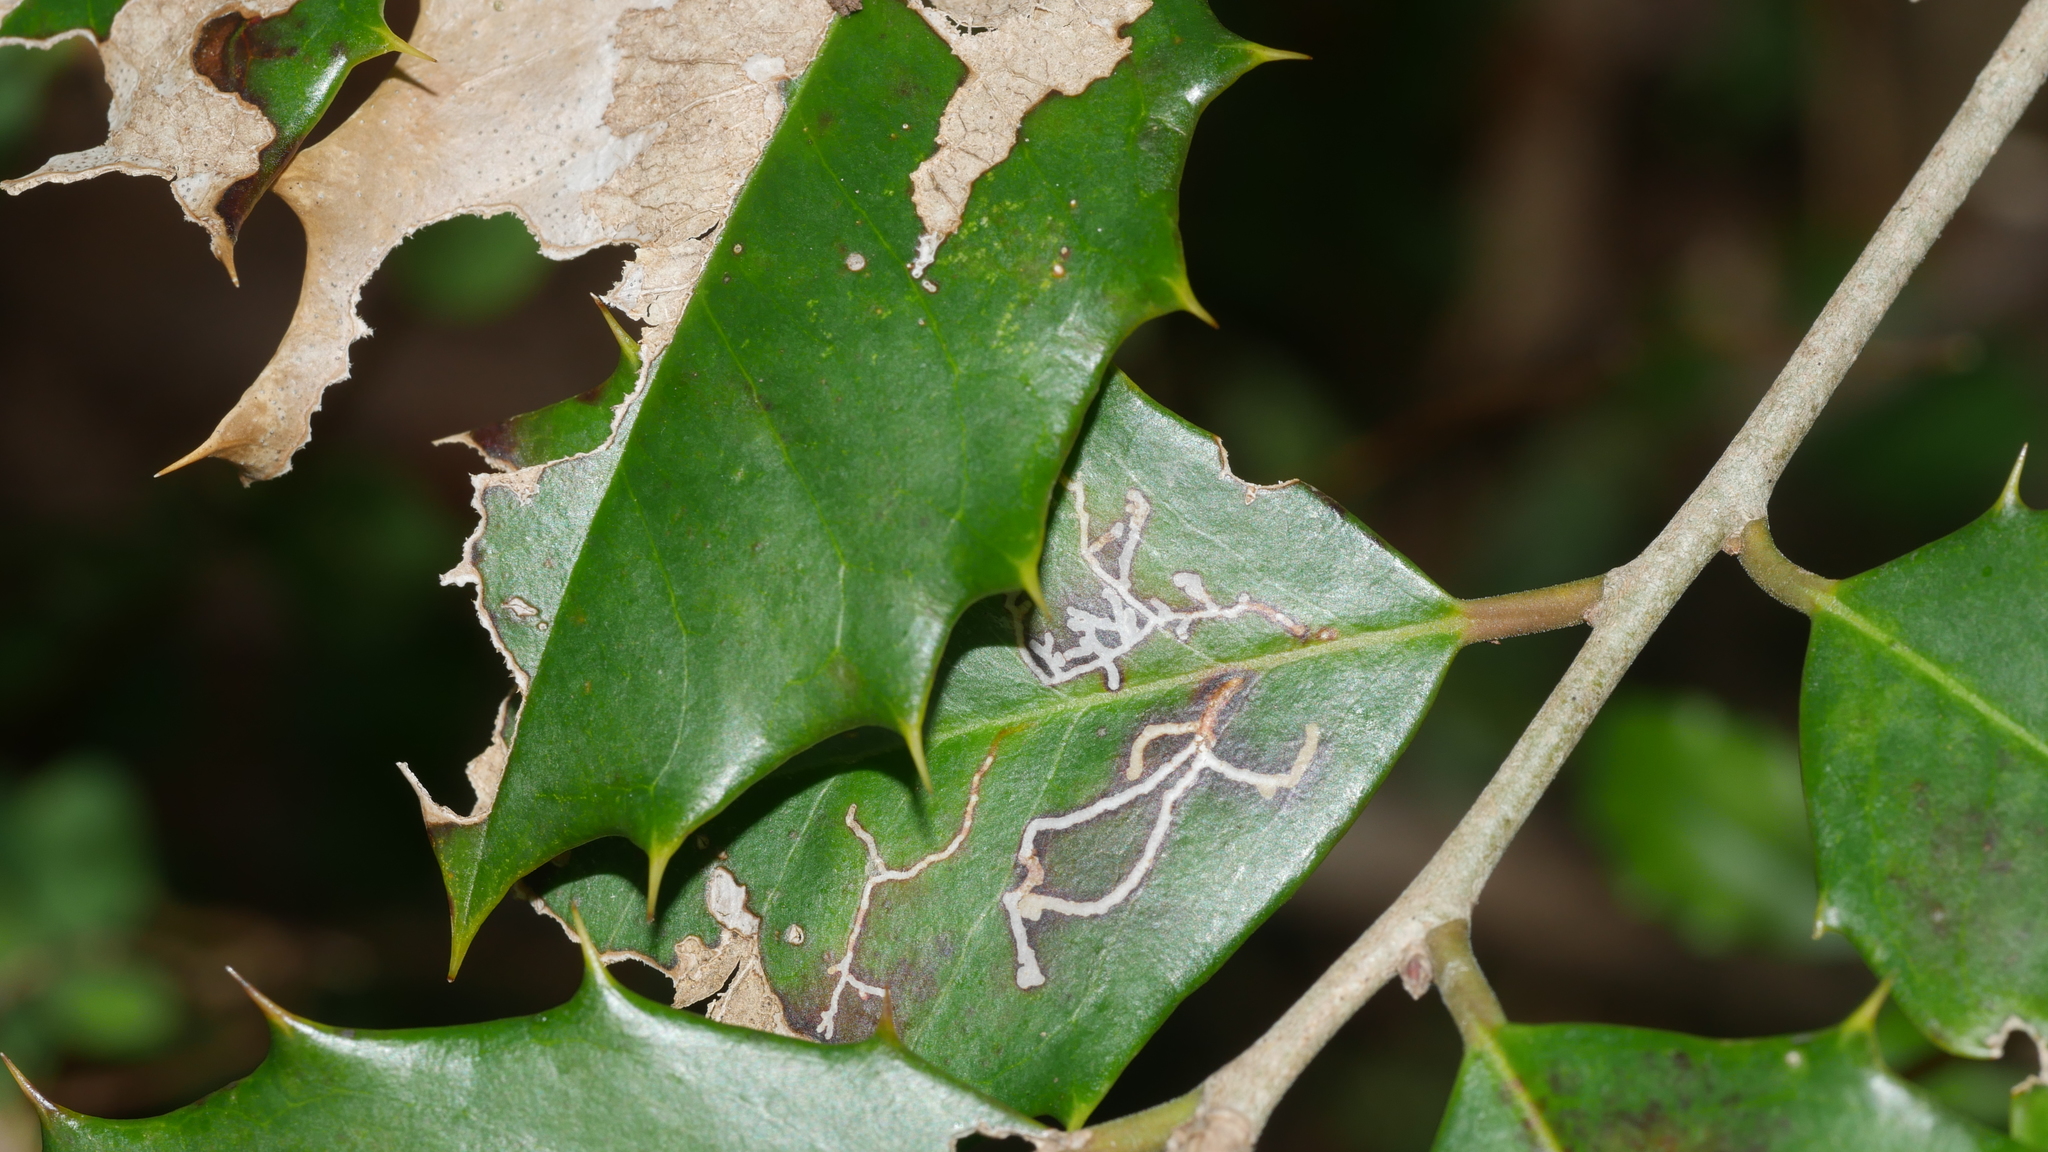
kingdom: Animalia
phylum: Arthropoda
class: Insecta
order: Lepidoptera
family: Tortricidae
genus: Rhopobota
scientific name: Rhopobota
